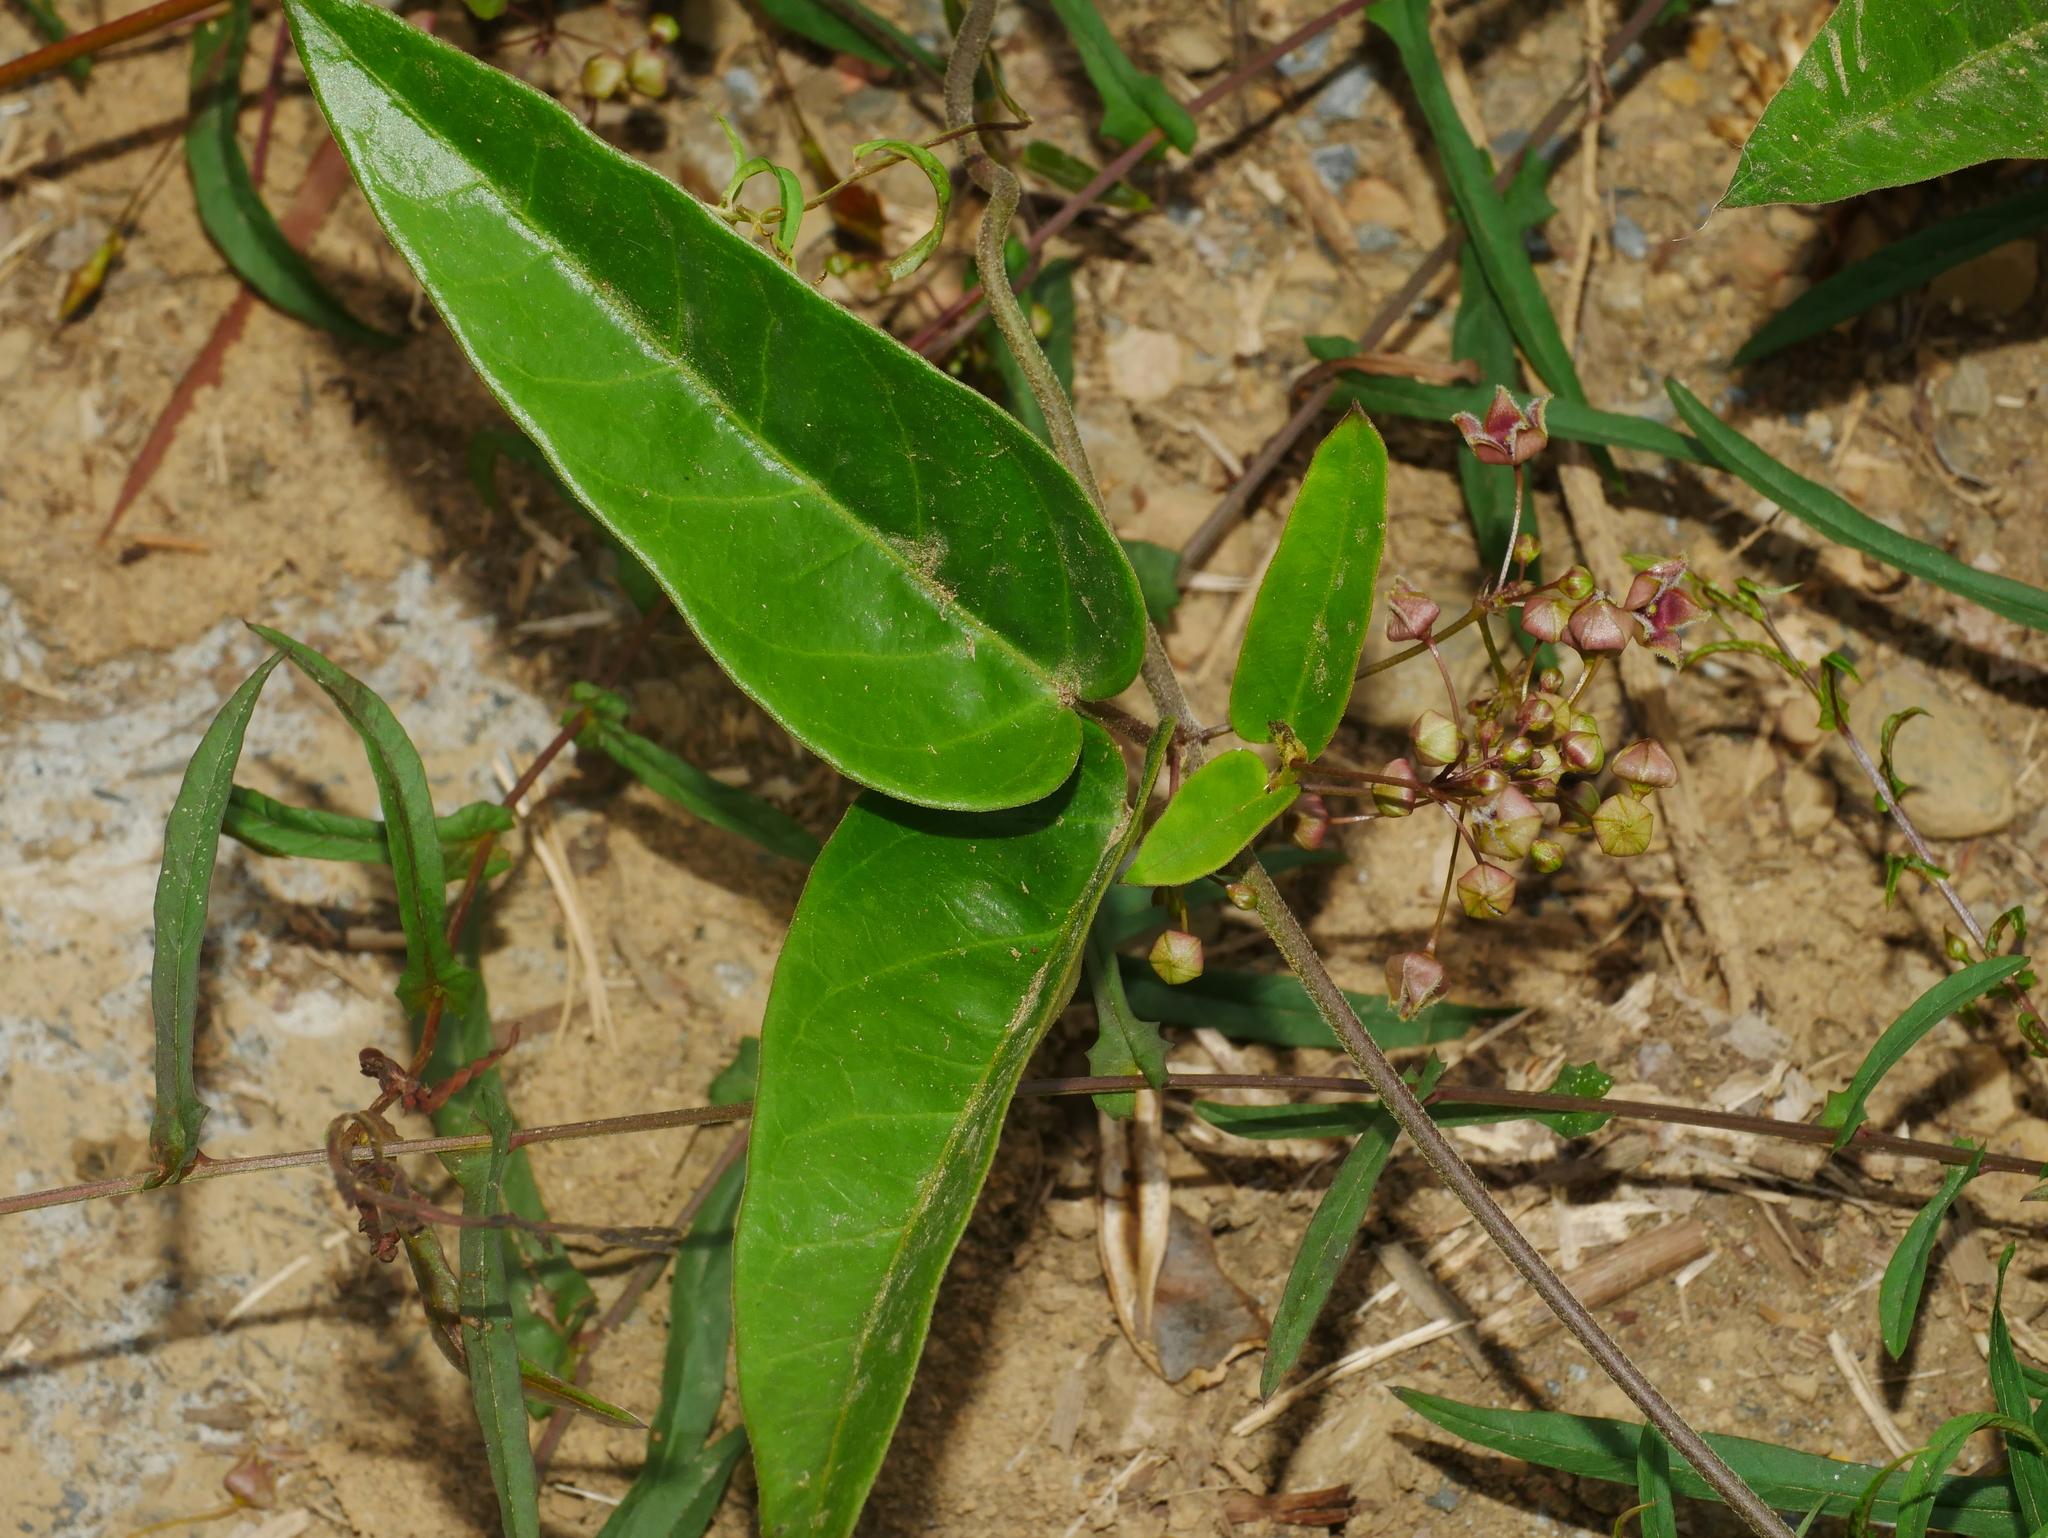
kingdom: Plantae
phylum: Tracheophyta
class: Magnoliopsida
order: Gentianales
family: Apocynaceae
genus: Vincetoxicum
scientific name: Vincetoxicum insulicola
